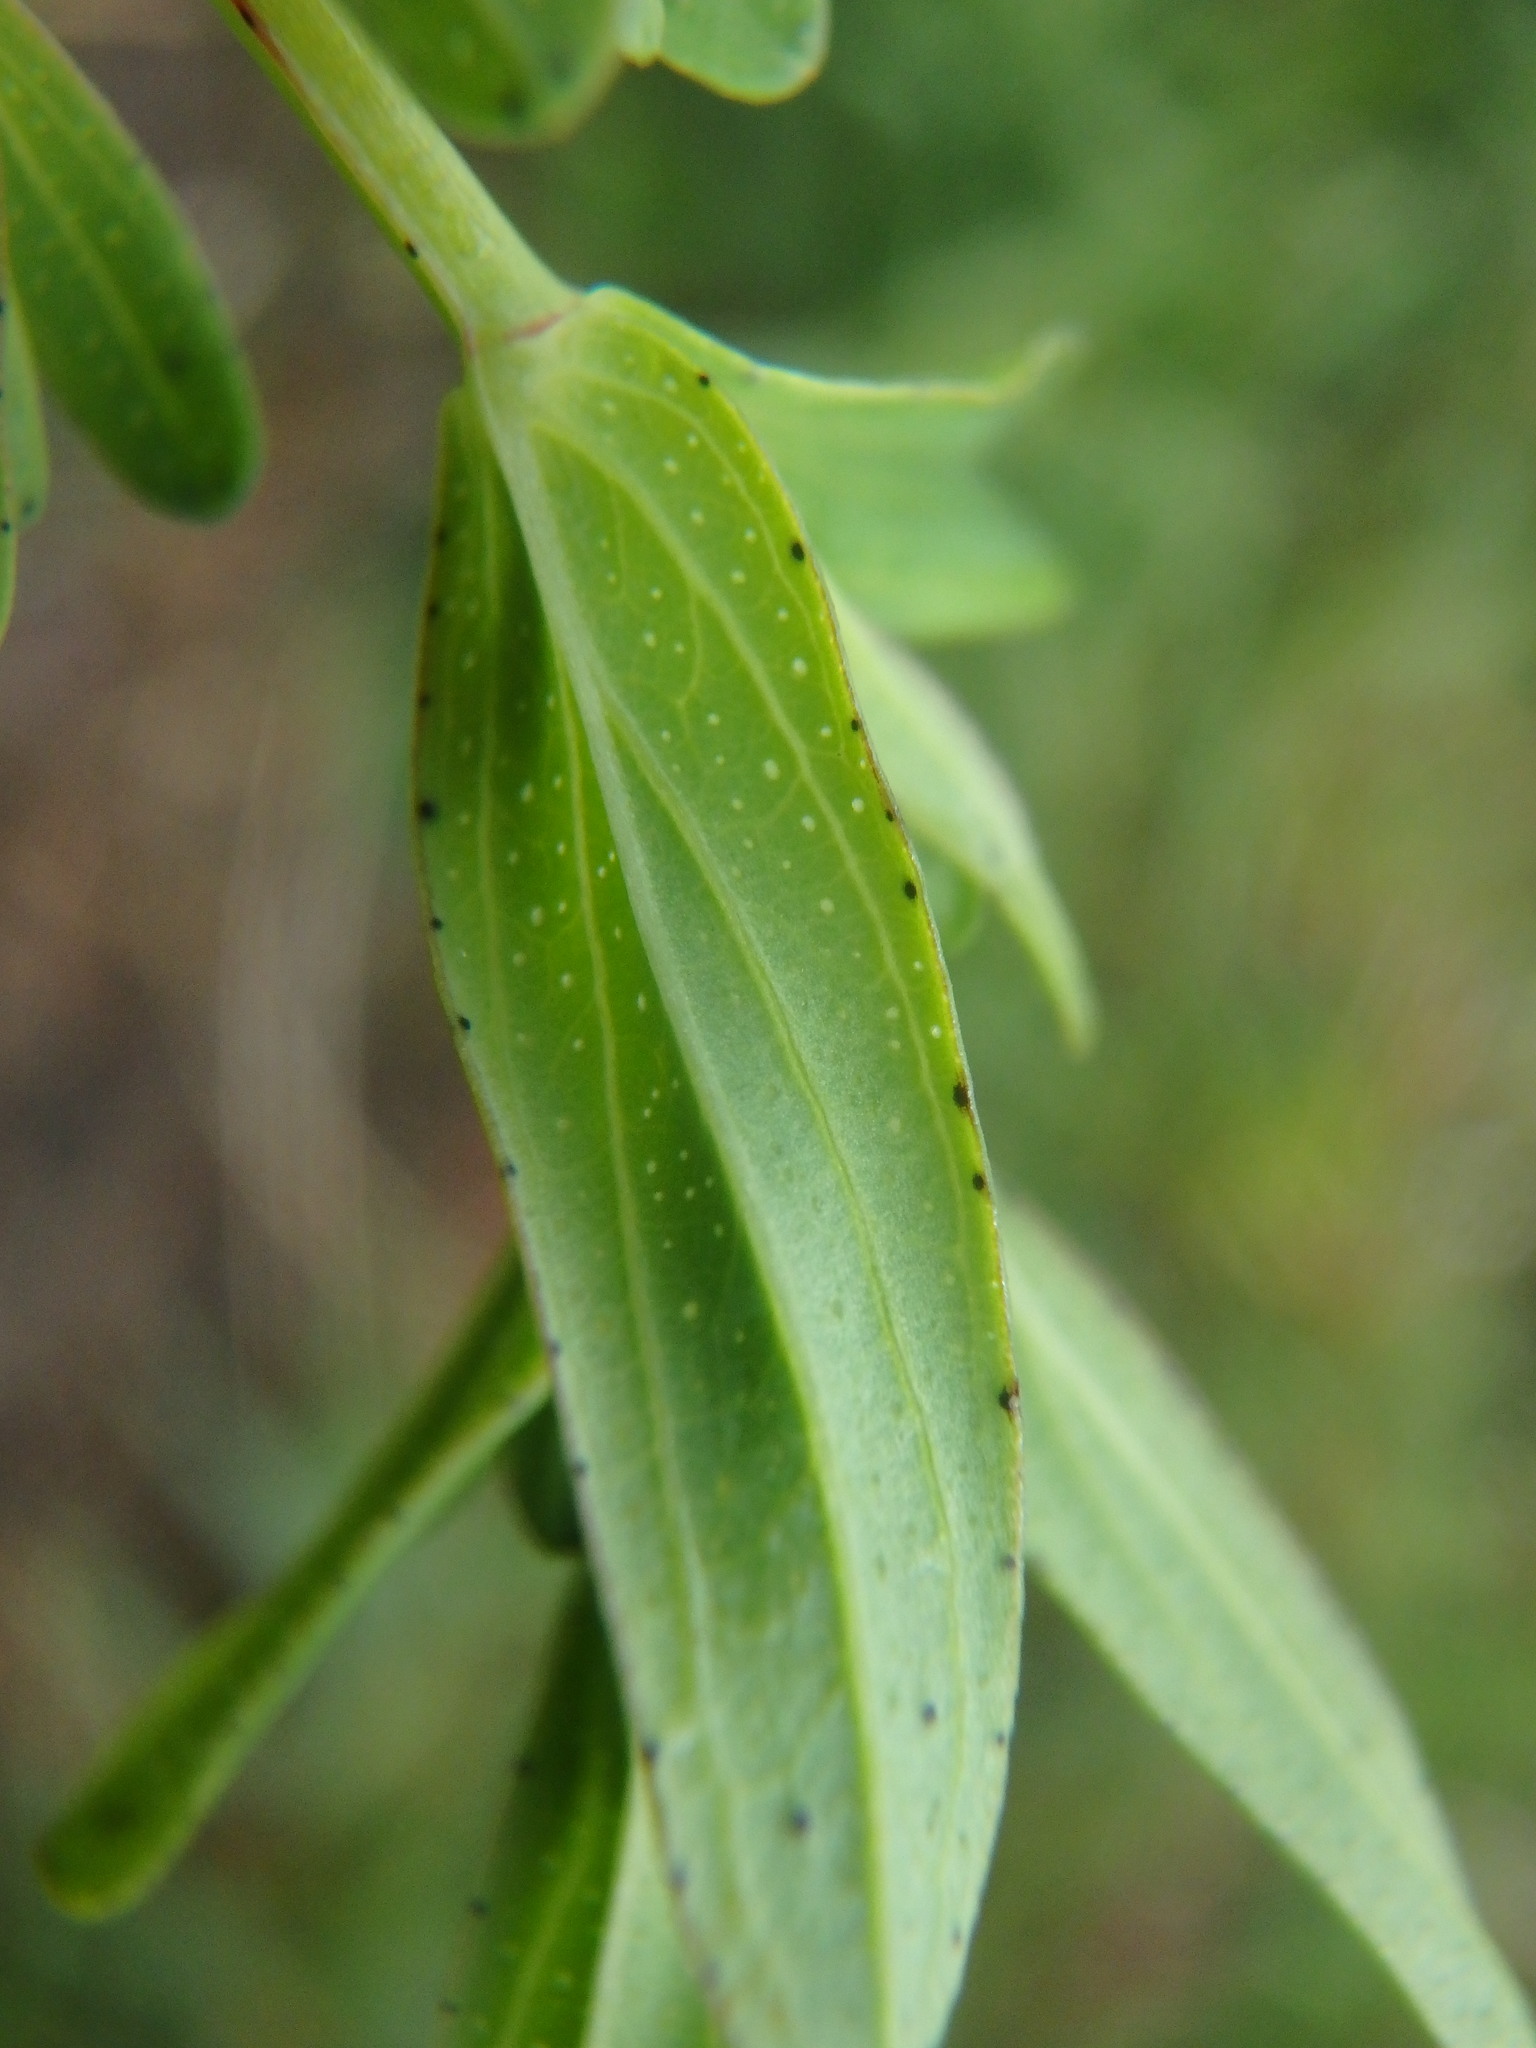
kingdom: Plantae
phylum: Tracheophyta
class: Magnoliopsida
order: Malpighiales
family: Hypericaceae
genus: Hypericum
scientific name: Hypericum perforatum
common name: Common st. johnswort
